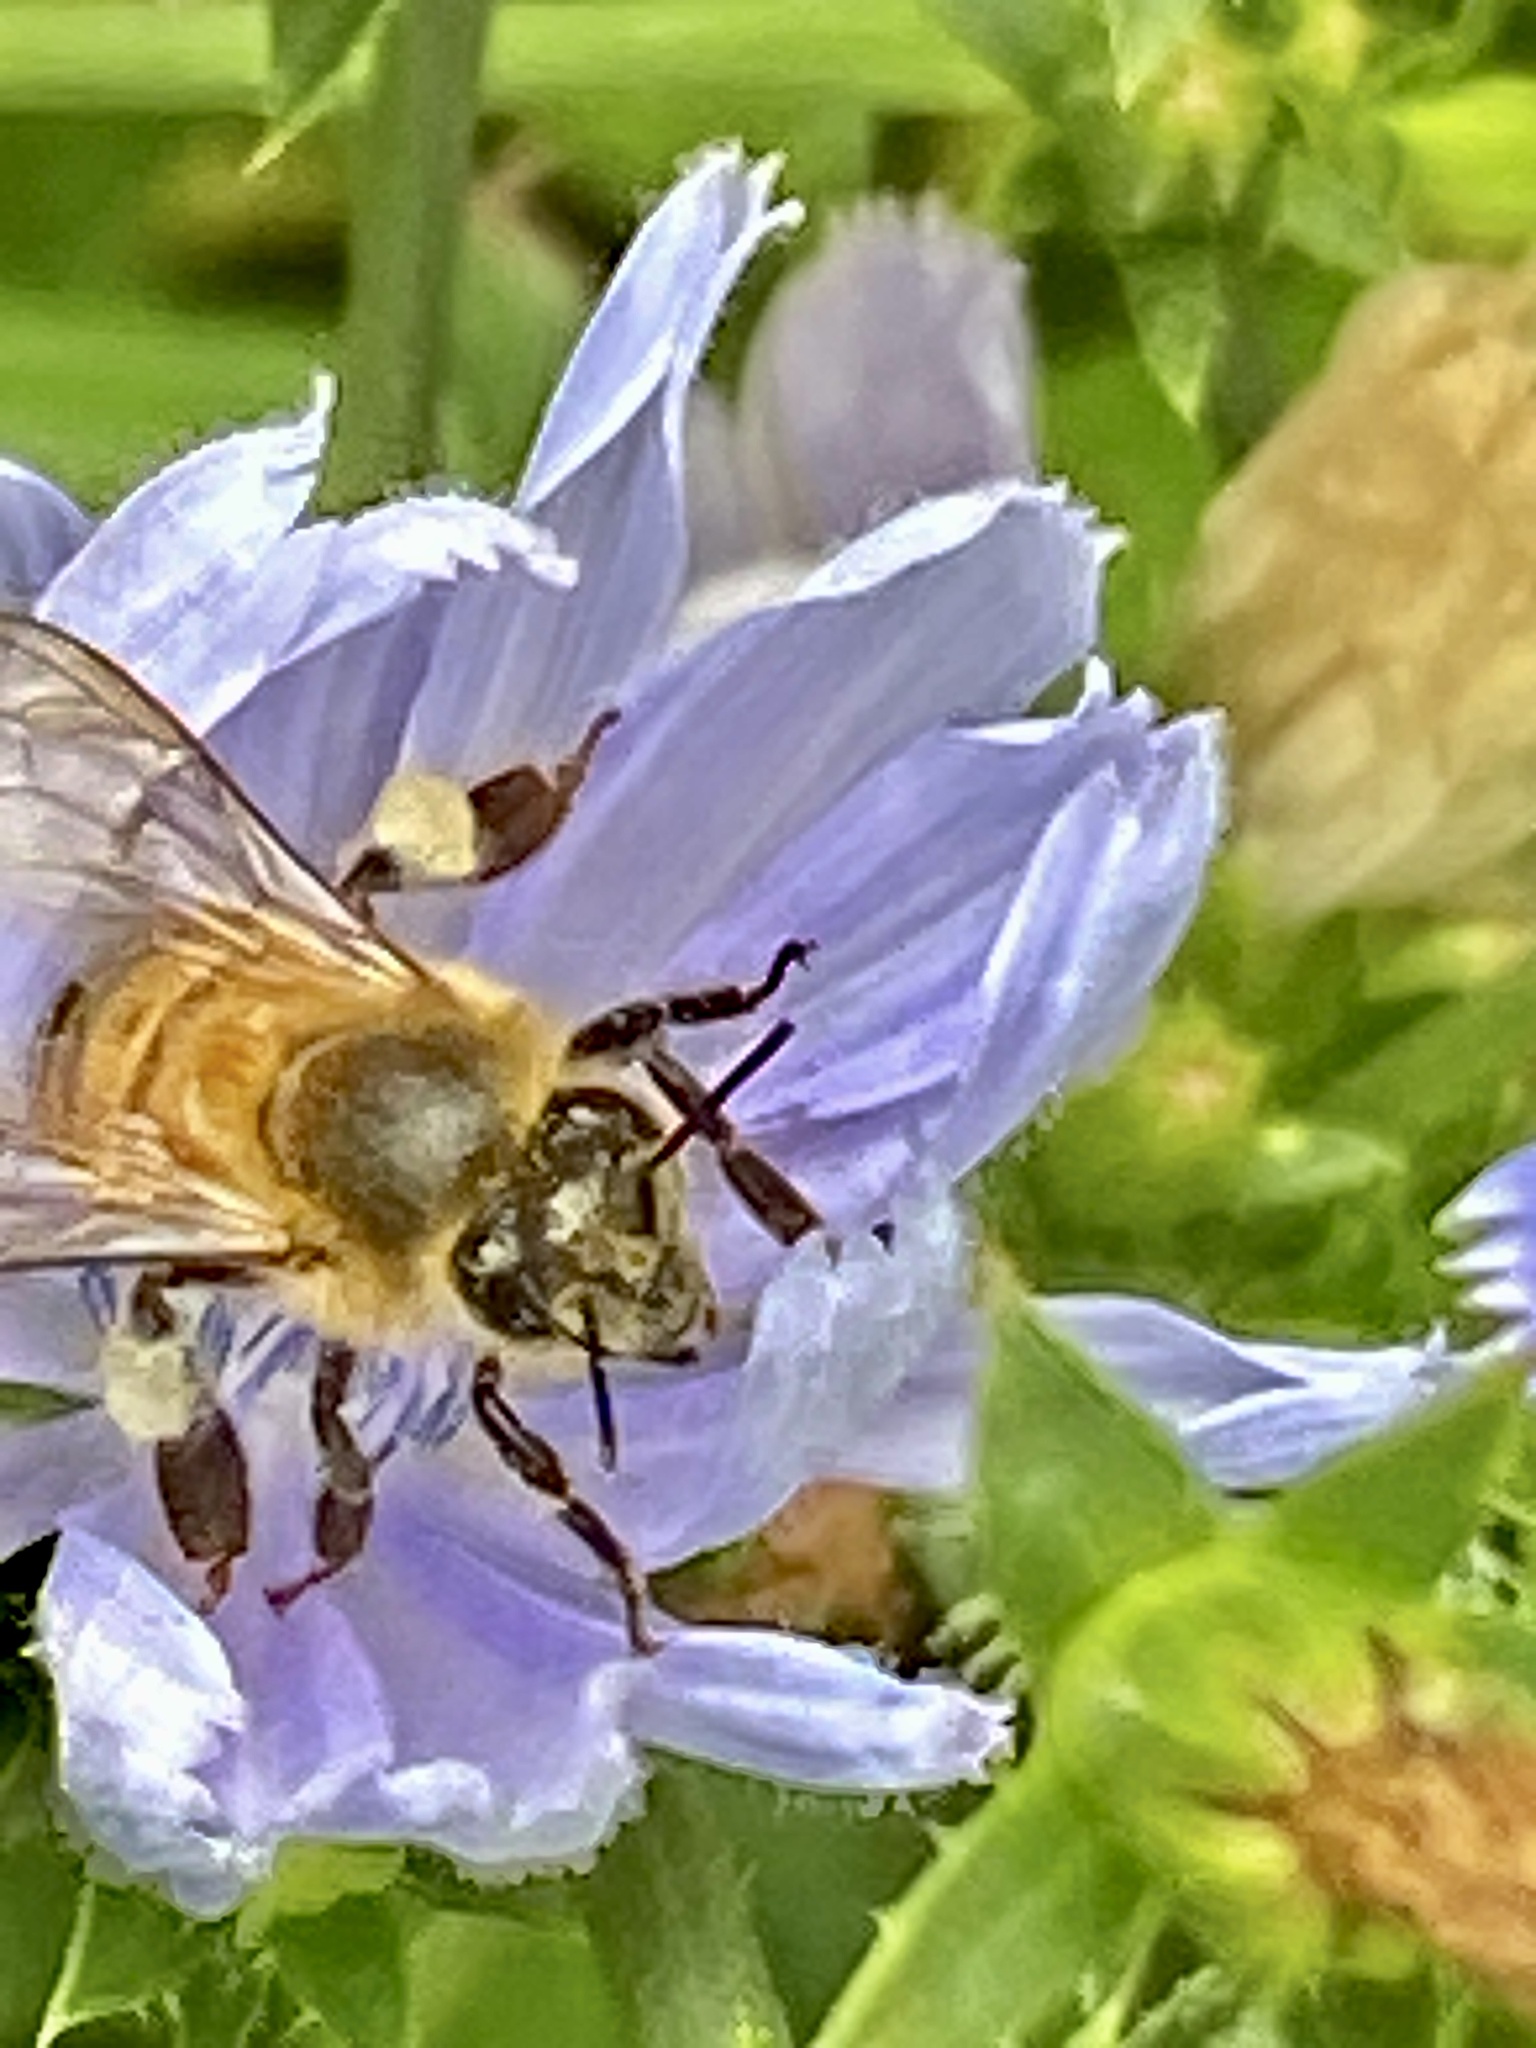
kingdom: Animalia
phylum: Arthropoda
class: Insecta
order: Hymenoptera
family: Apidae
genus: Apis
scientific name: Apis mellifera
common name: Honey bee
